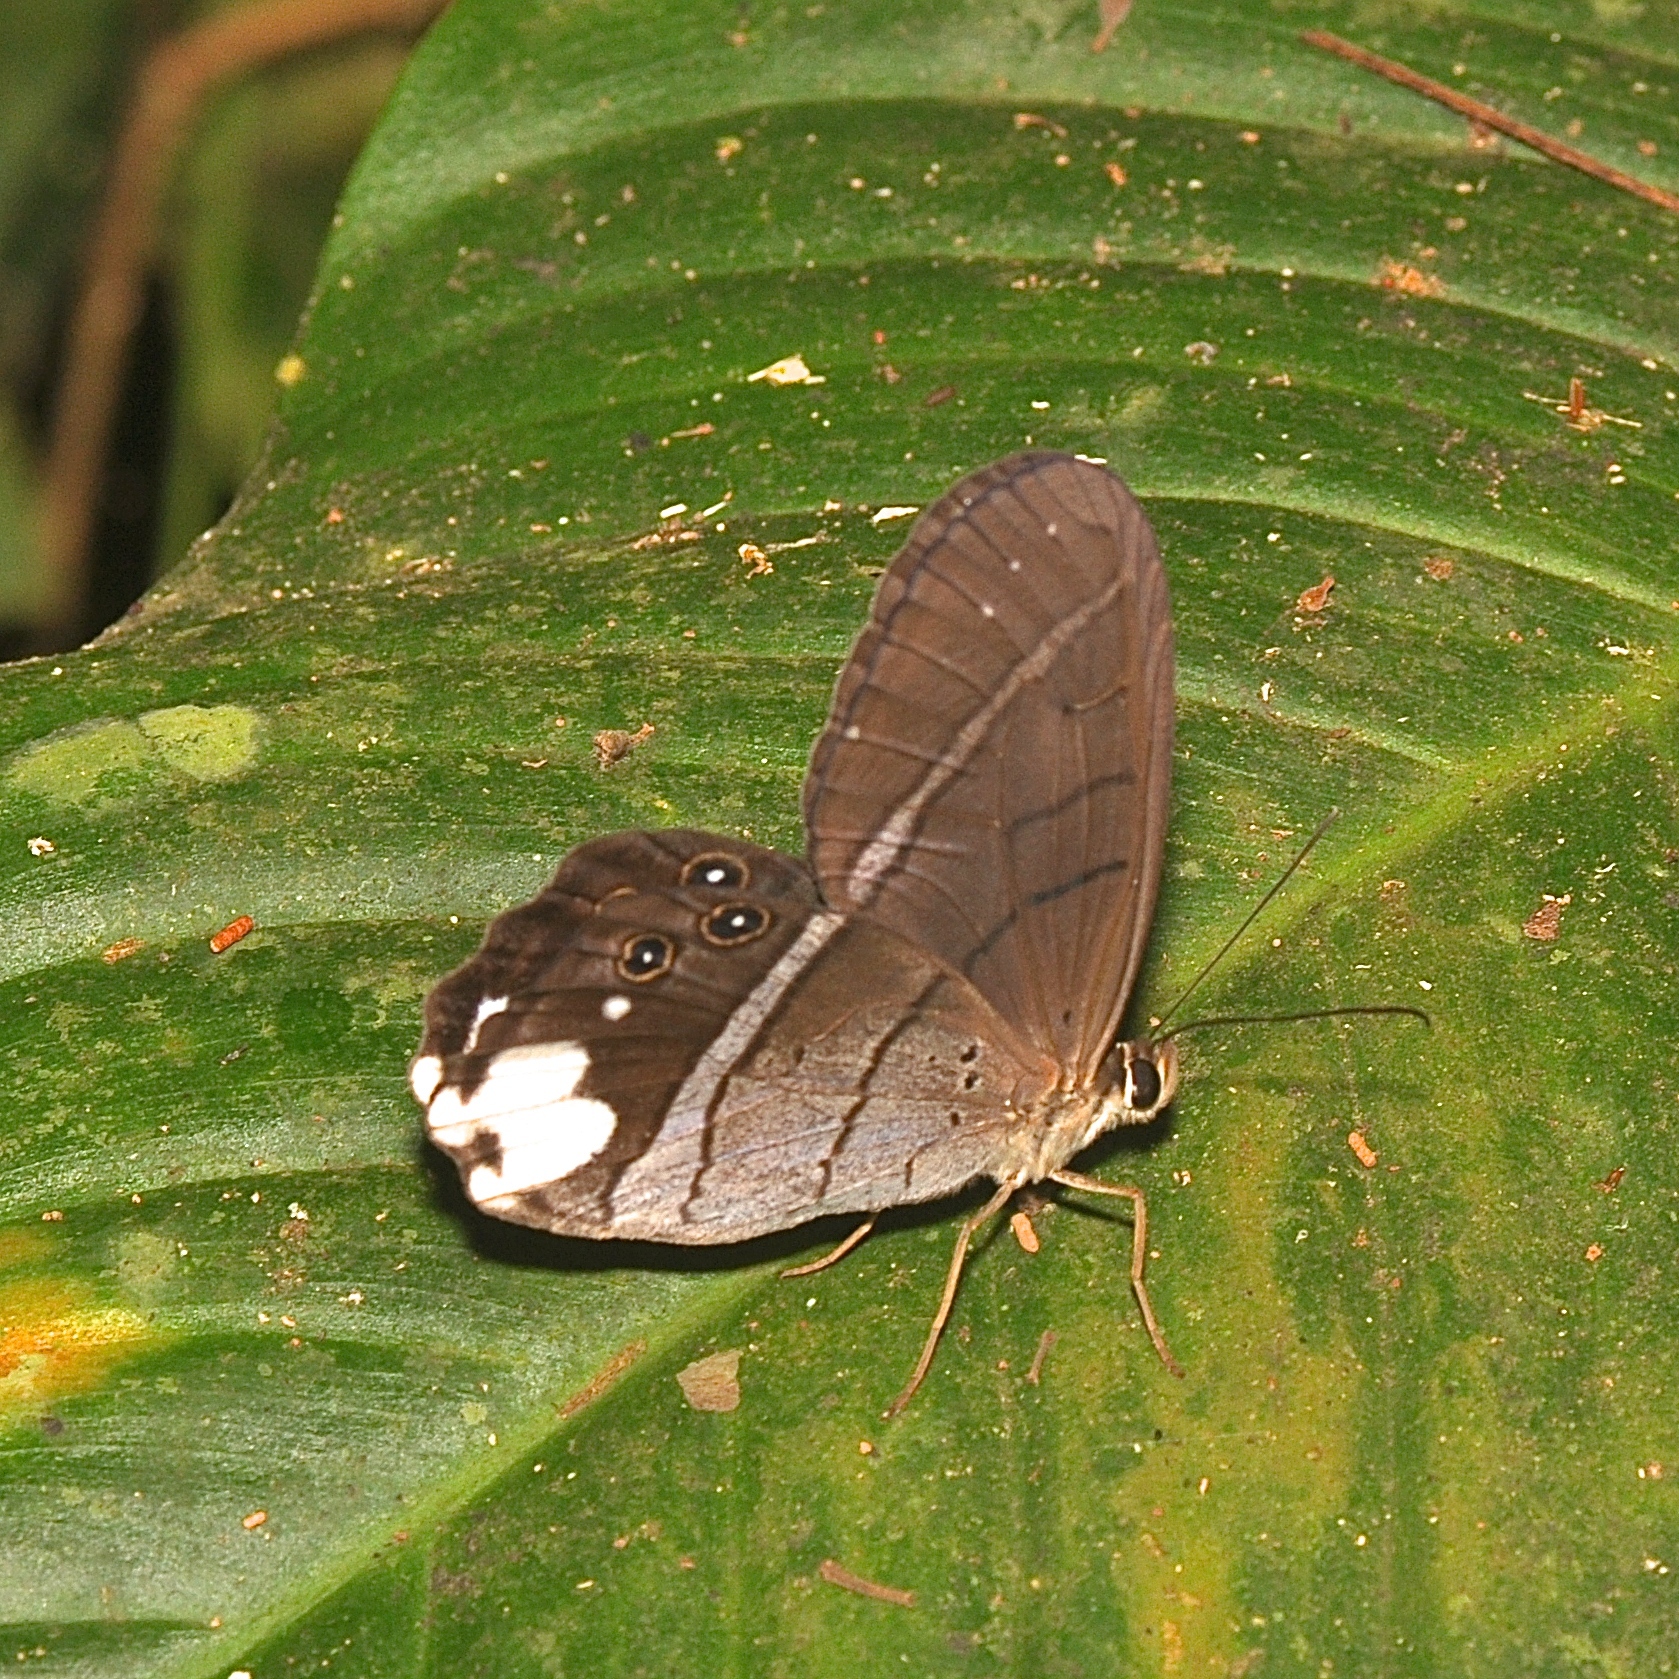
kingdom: Animalia
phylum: Arthropoda
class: Insecta
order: Lepidoptera
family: Nymphalidae
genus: Pierella
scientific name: Pierella astyoche
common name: Astyoche satyr
